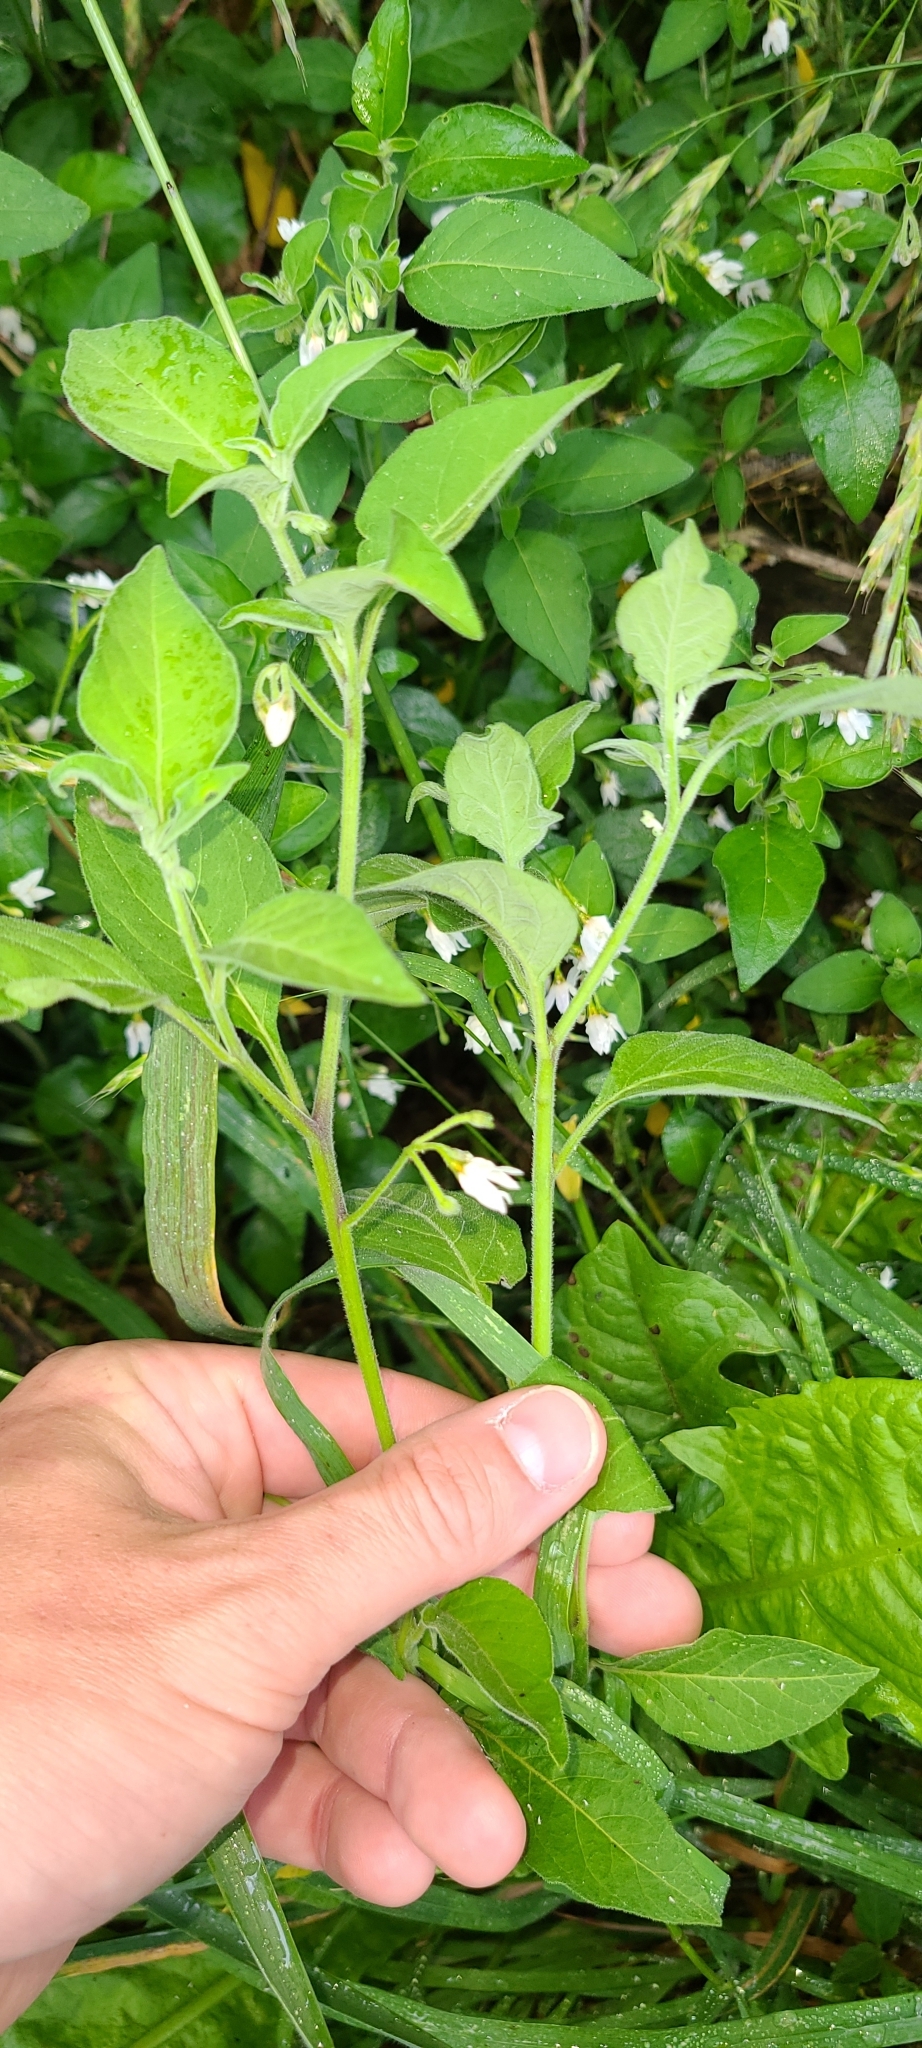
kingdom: Plantae
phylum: Tracheophyta
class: Magnoliopsida
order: Solanales
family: Solanaceae
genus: Solanum
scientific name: Solanum chenopodioides
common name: Tall nightshade
